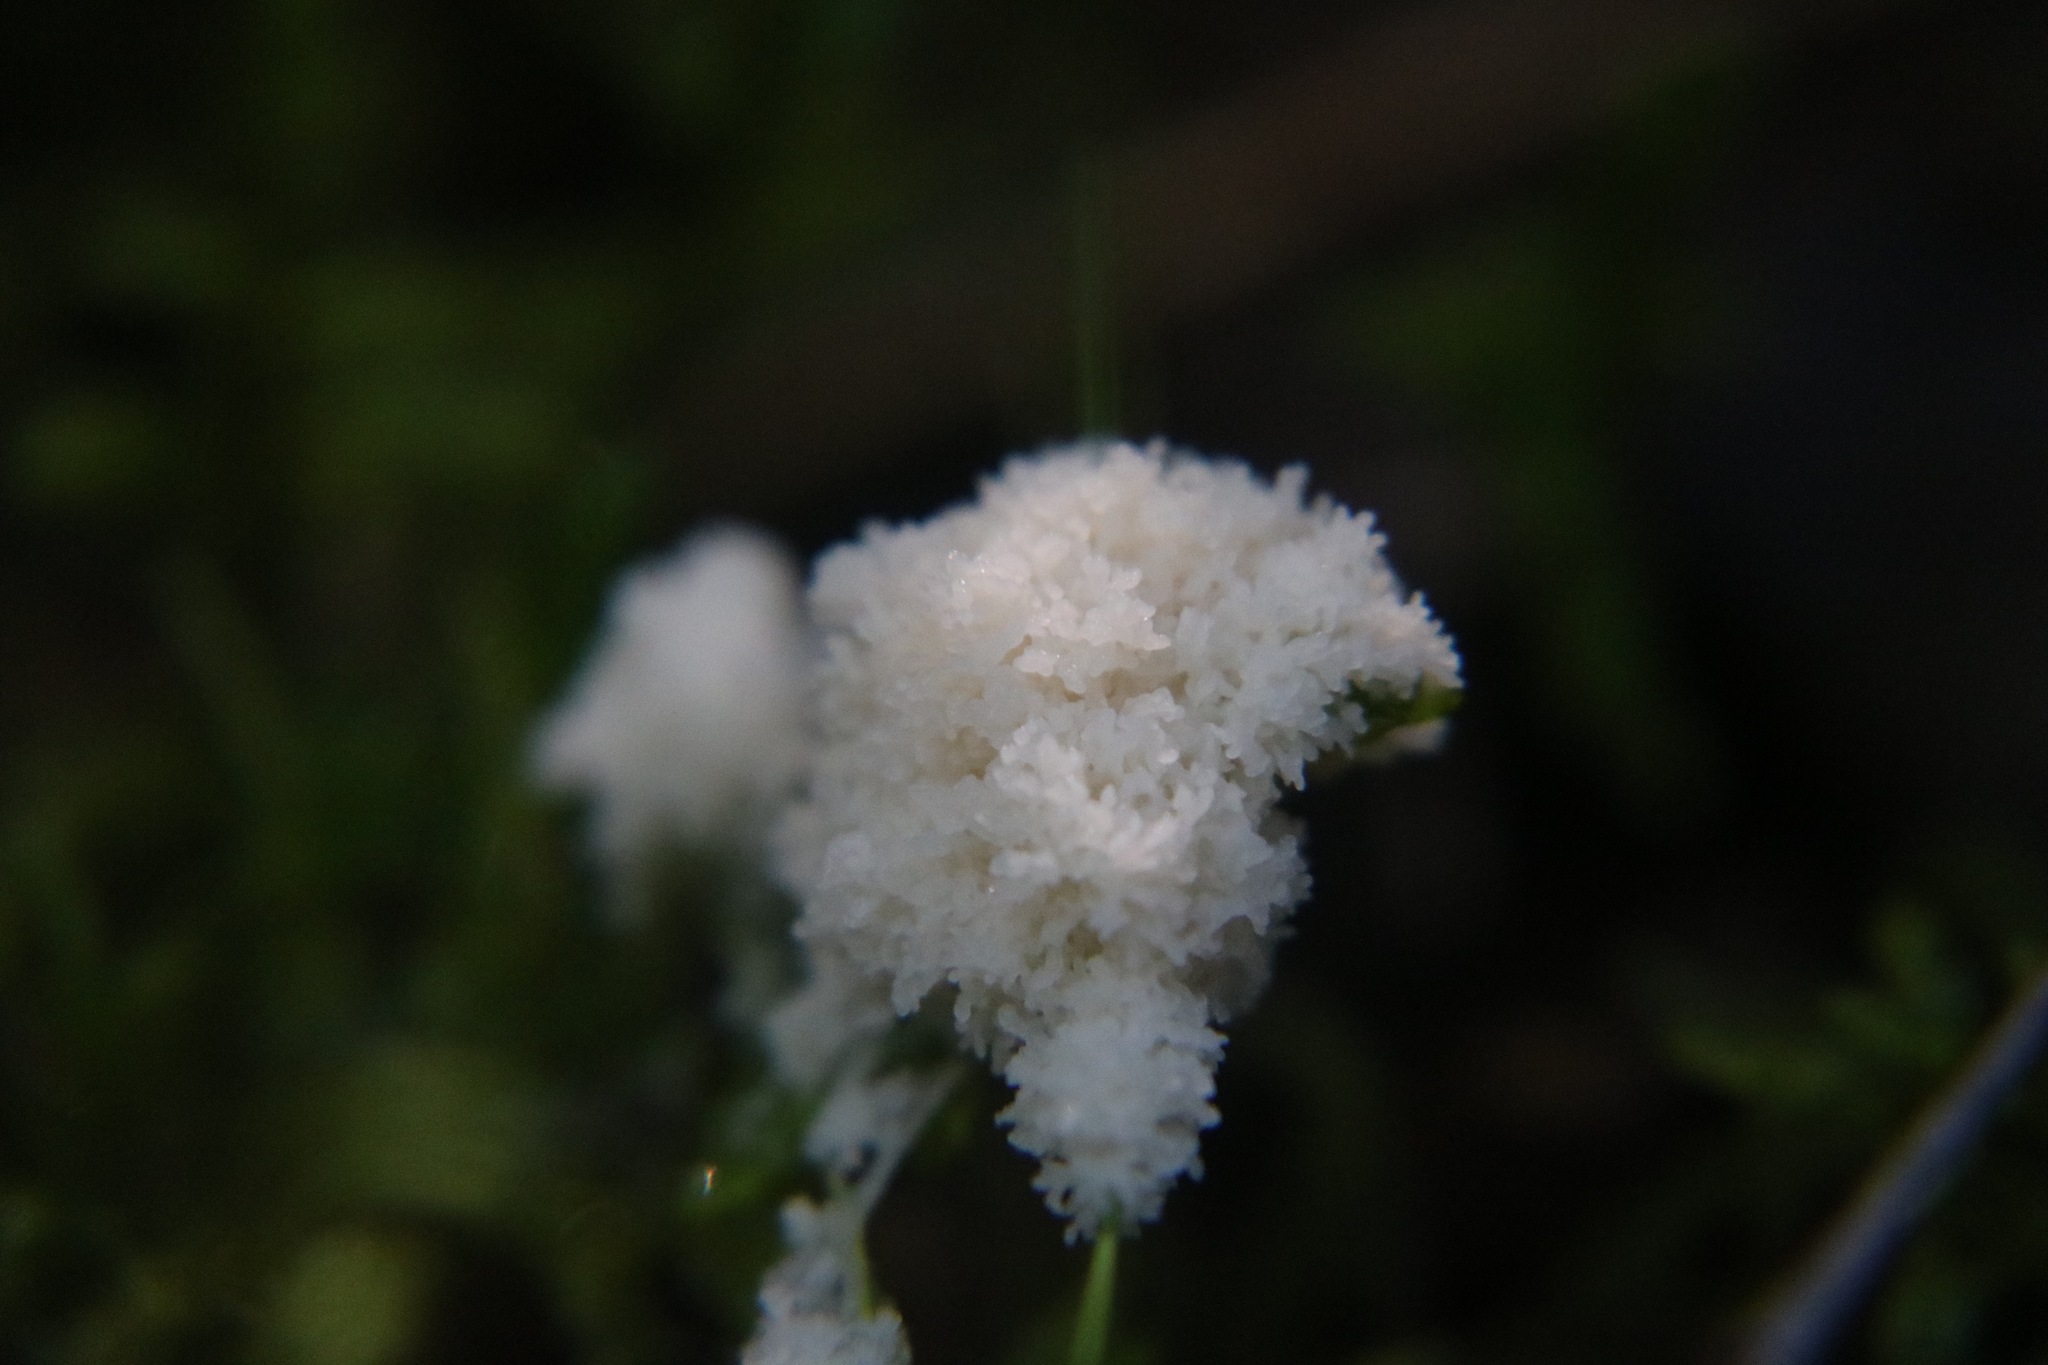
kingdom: Protozoa
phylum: Mycetozoa
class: Myxomycetes
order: Physarales
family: Physaraceae
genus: Didymium
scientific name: Didymium
